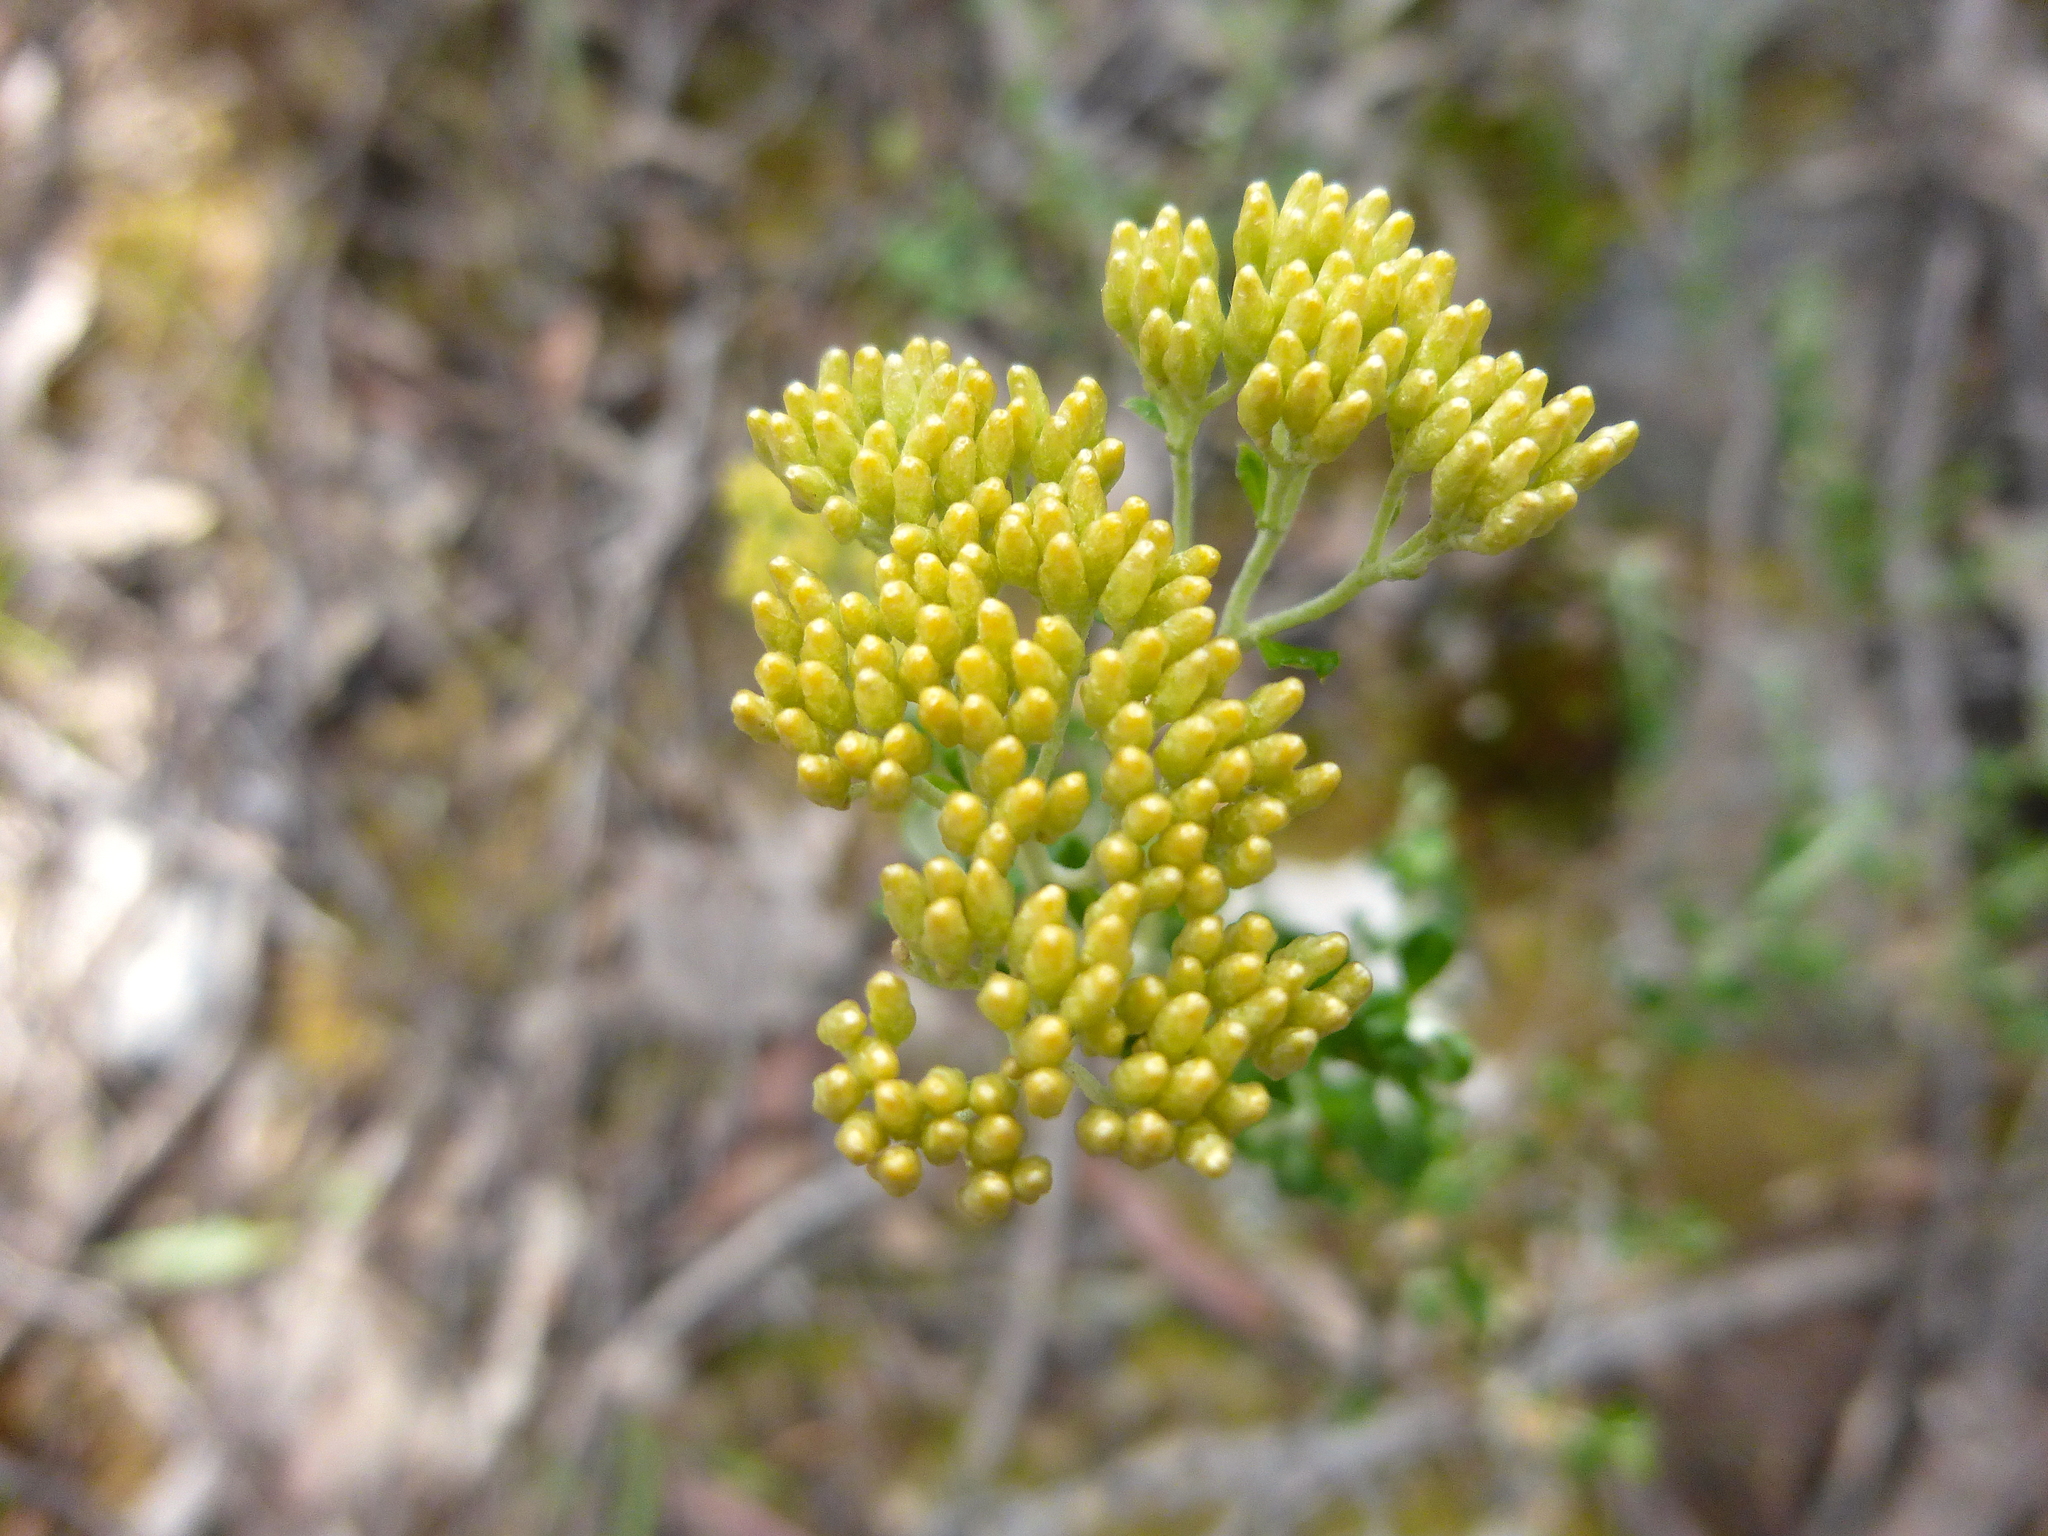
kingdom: Plantae
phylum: Tracheophyta
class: Magnoliopsida
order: Asterales
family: Asteraceae
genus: Ozothamnus
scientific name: Ozothamnus obcordatus
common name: Grey everlasting
